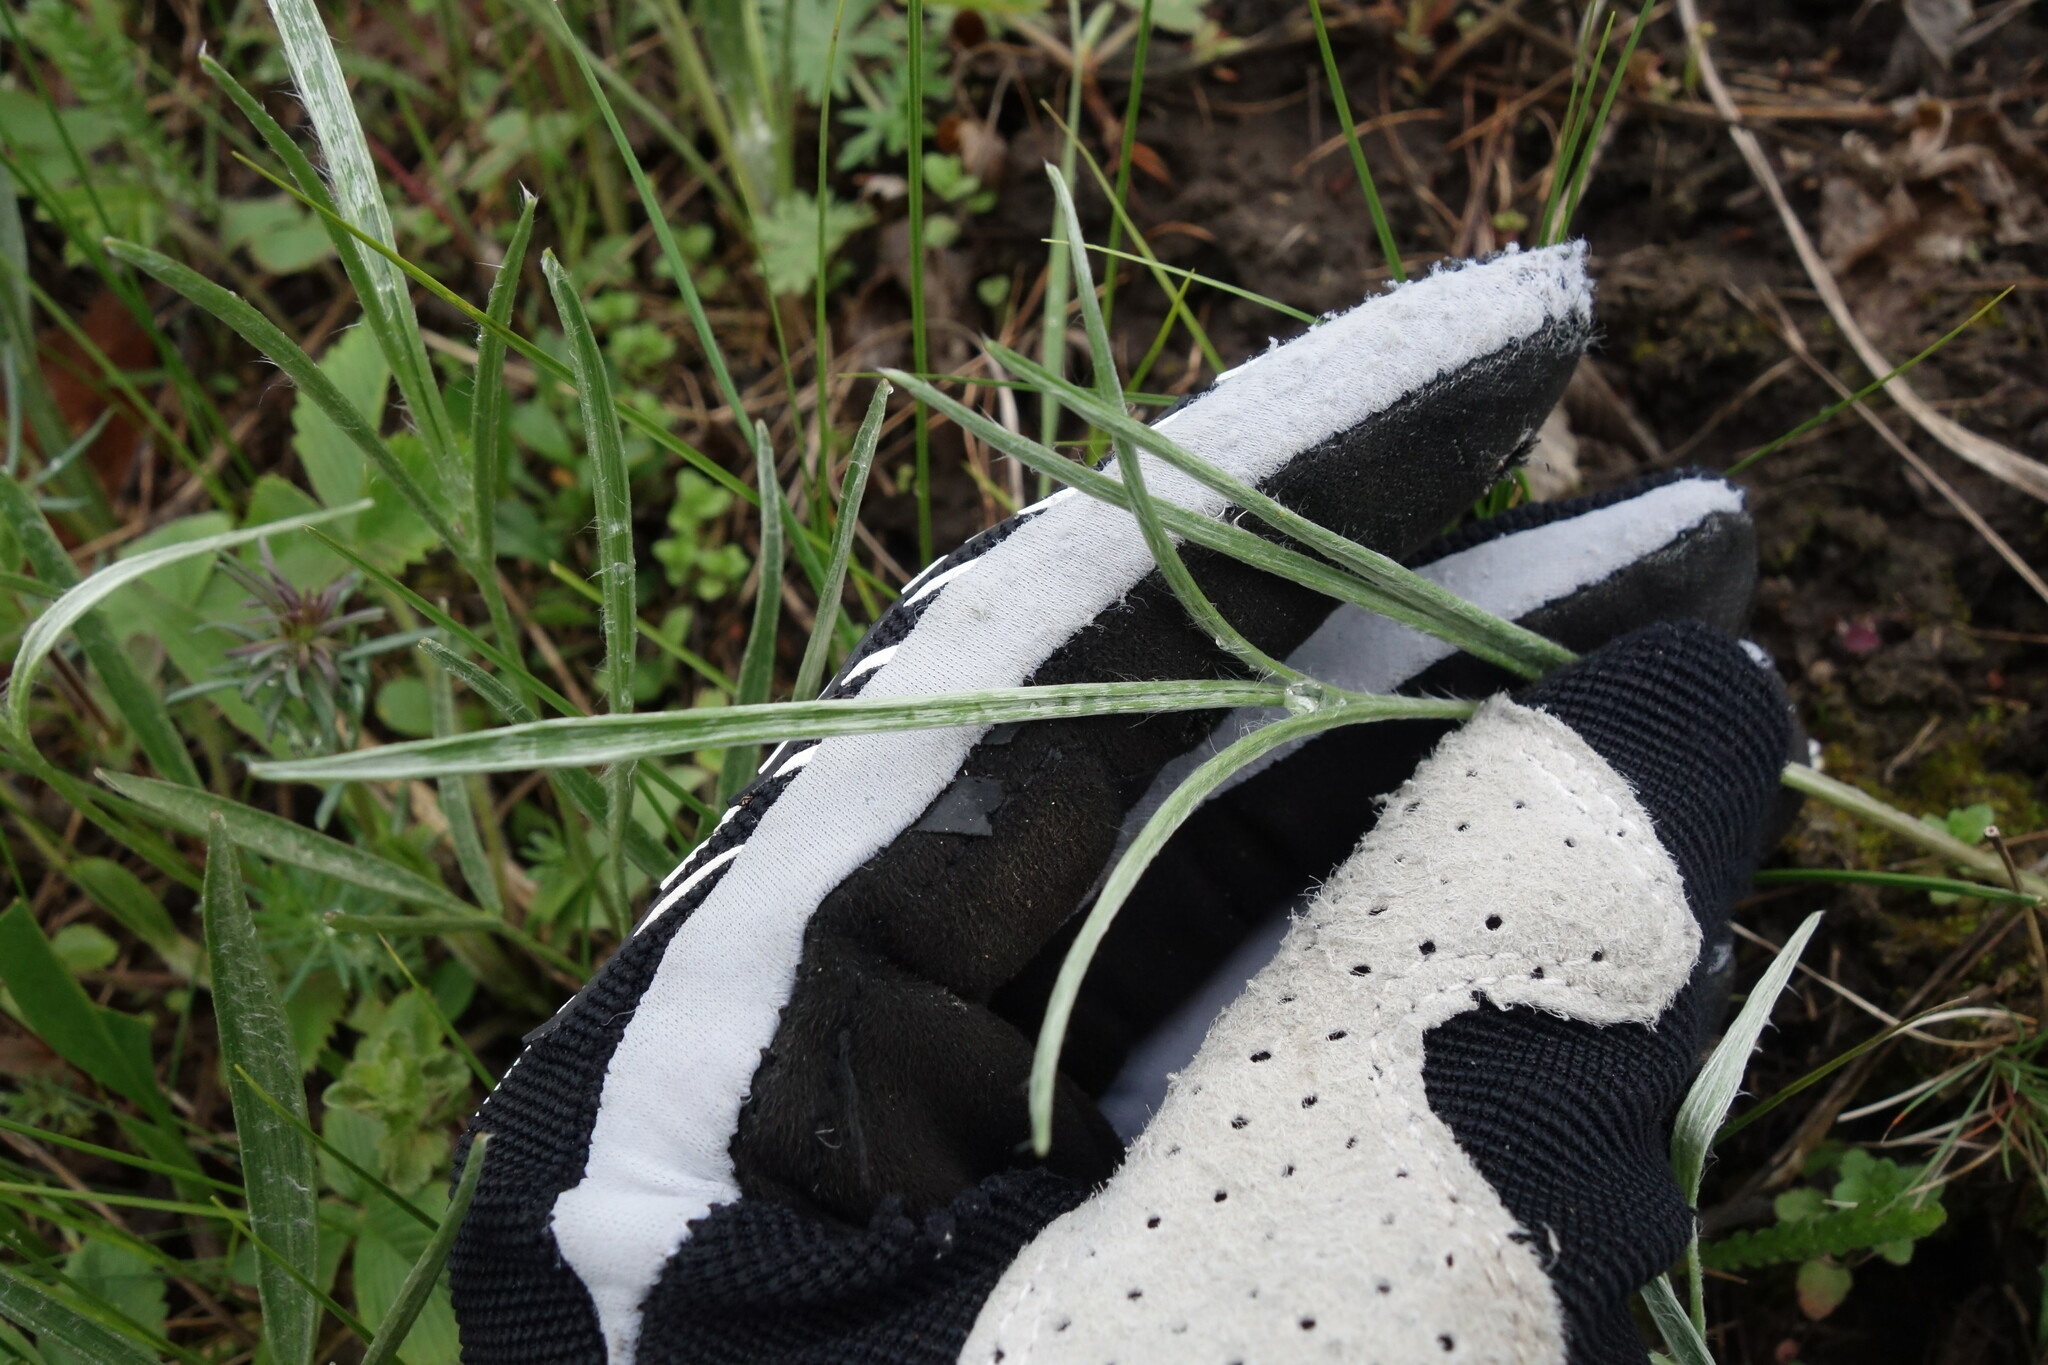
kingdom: Plantae
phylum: Tracheophyta
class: Magnoliopsida
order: Ranunculales
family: Ranunculaceae
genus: Ranunculus
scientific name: Ranunculus illyricus
